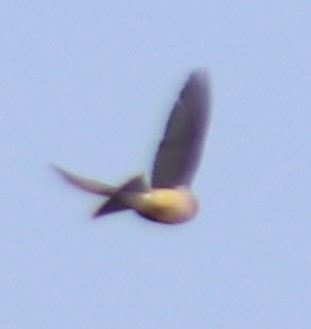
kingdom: Animalia
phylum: Chordata
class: Aves
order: Passeriformes
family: Bombycillidae
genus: Bombycilla
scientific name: Bombycilla cedrorum
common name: Cedar waxwing
